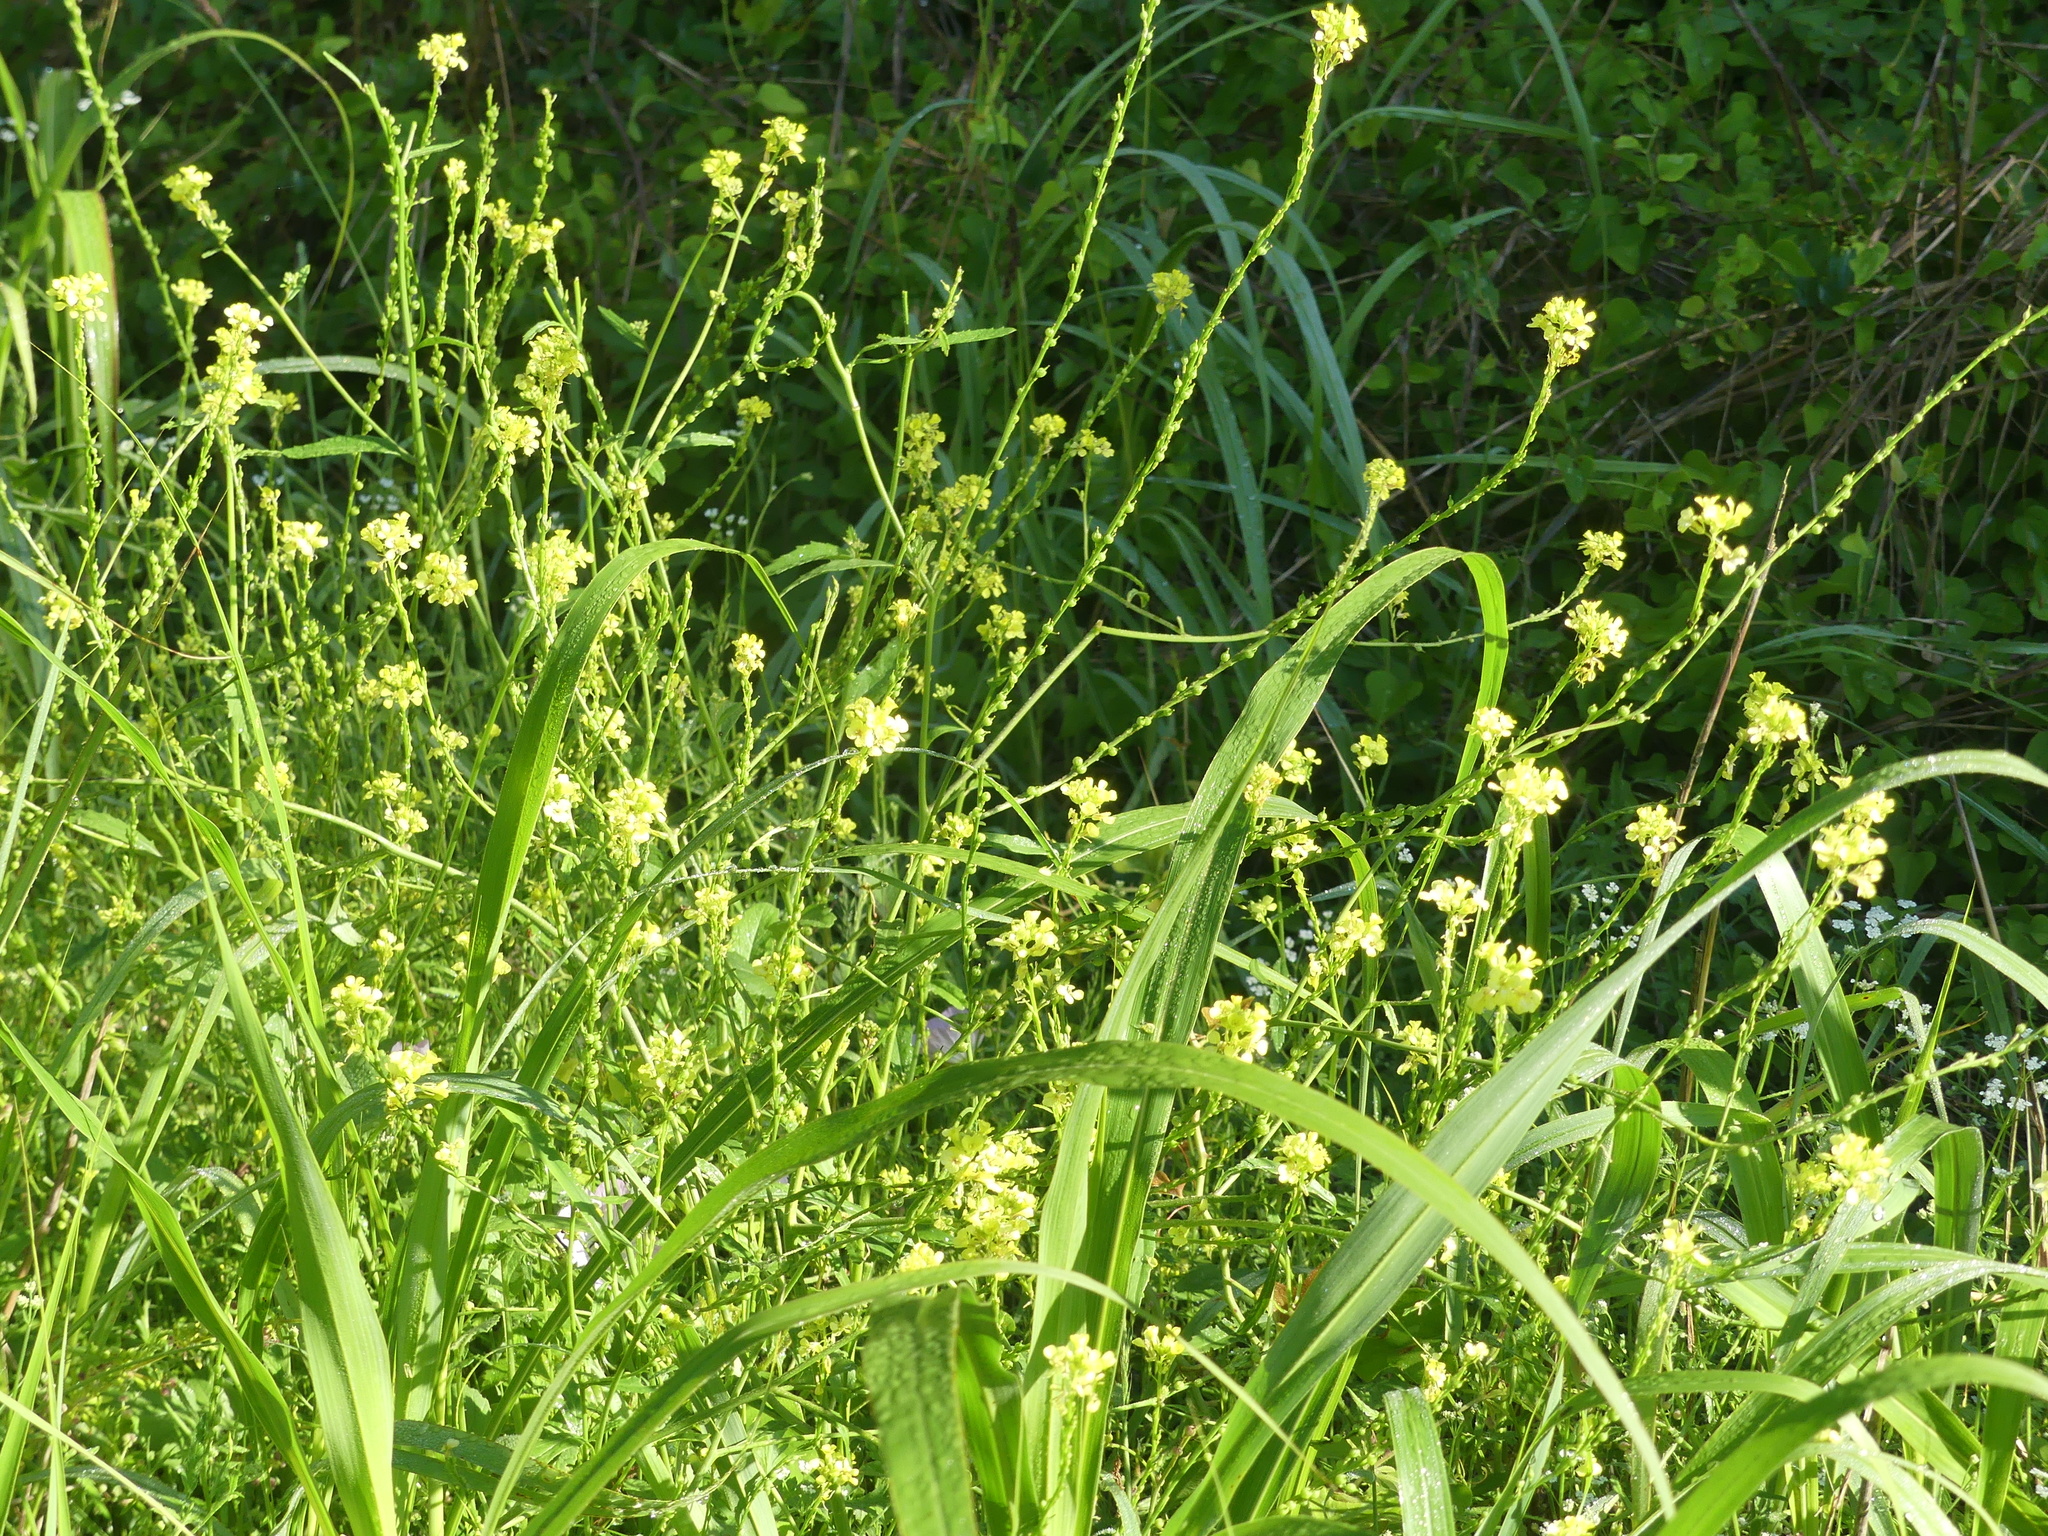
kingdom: Plantae
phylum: Tracheophyta
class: Magnoliopsida
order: Brassicales
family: Brassicaceae
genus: Rapistrum
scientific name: Rapistrum rugosum
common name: Annual bastardcabbage
